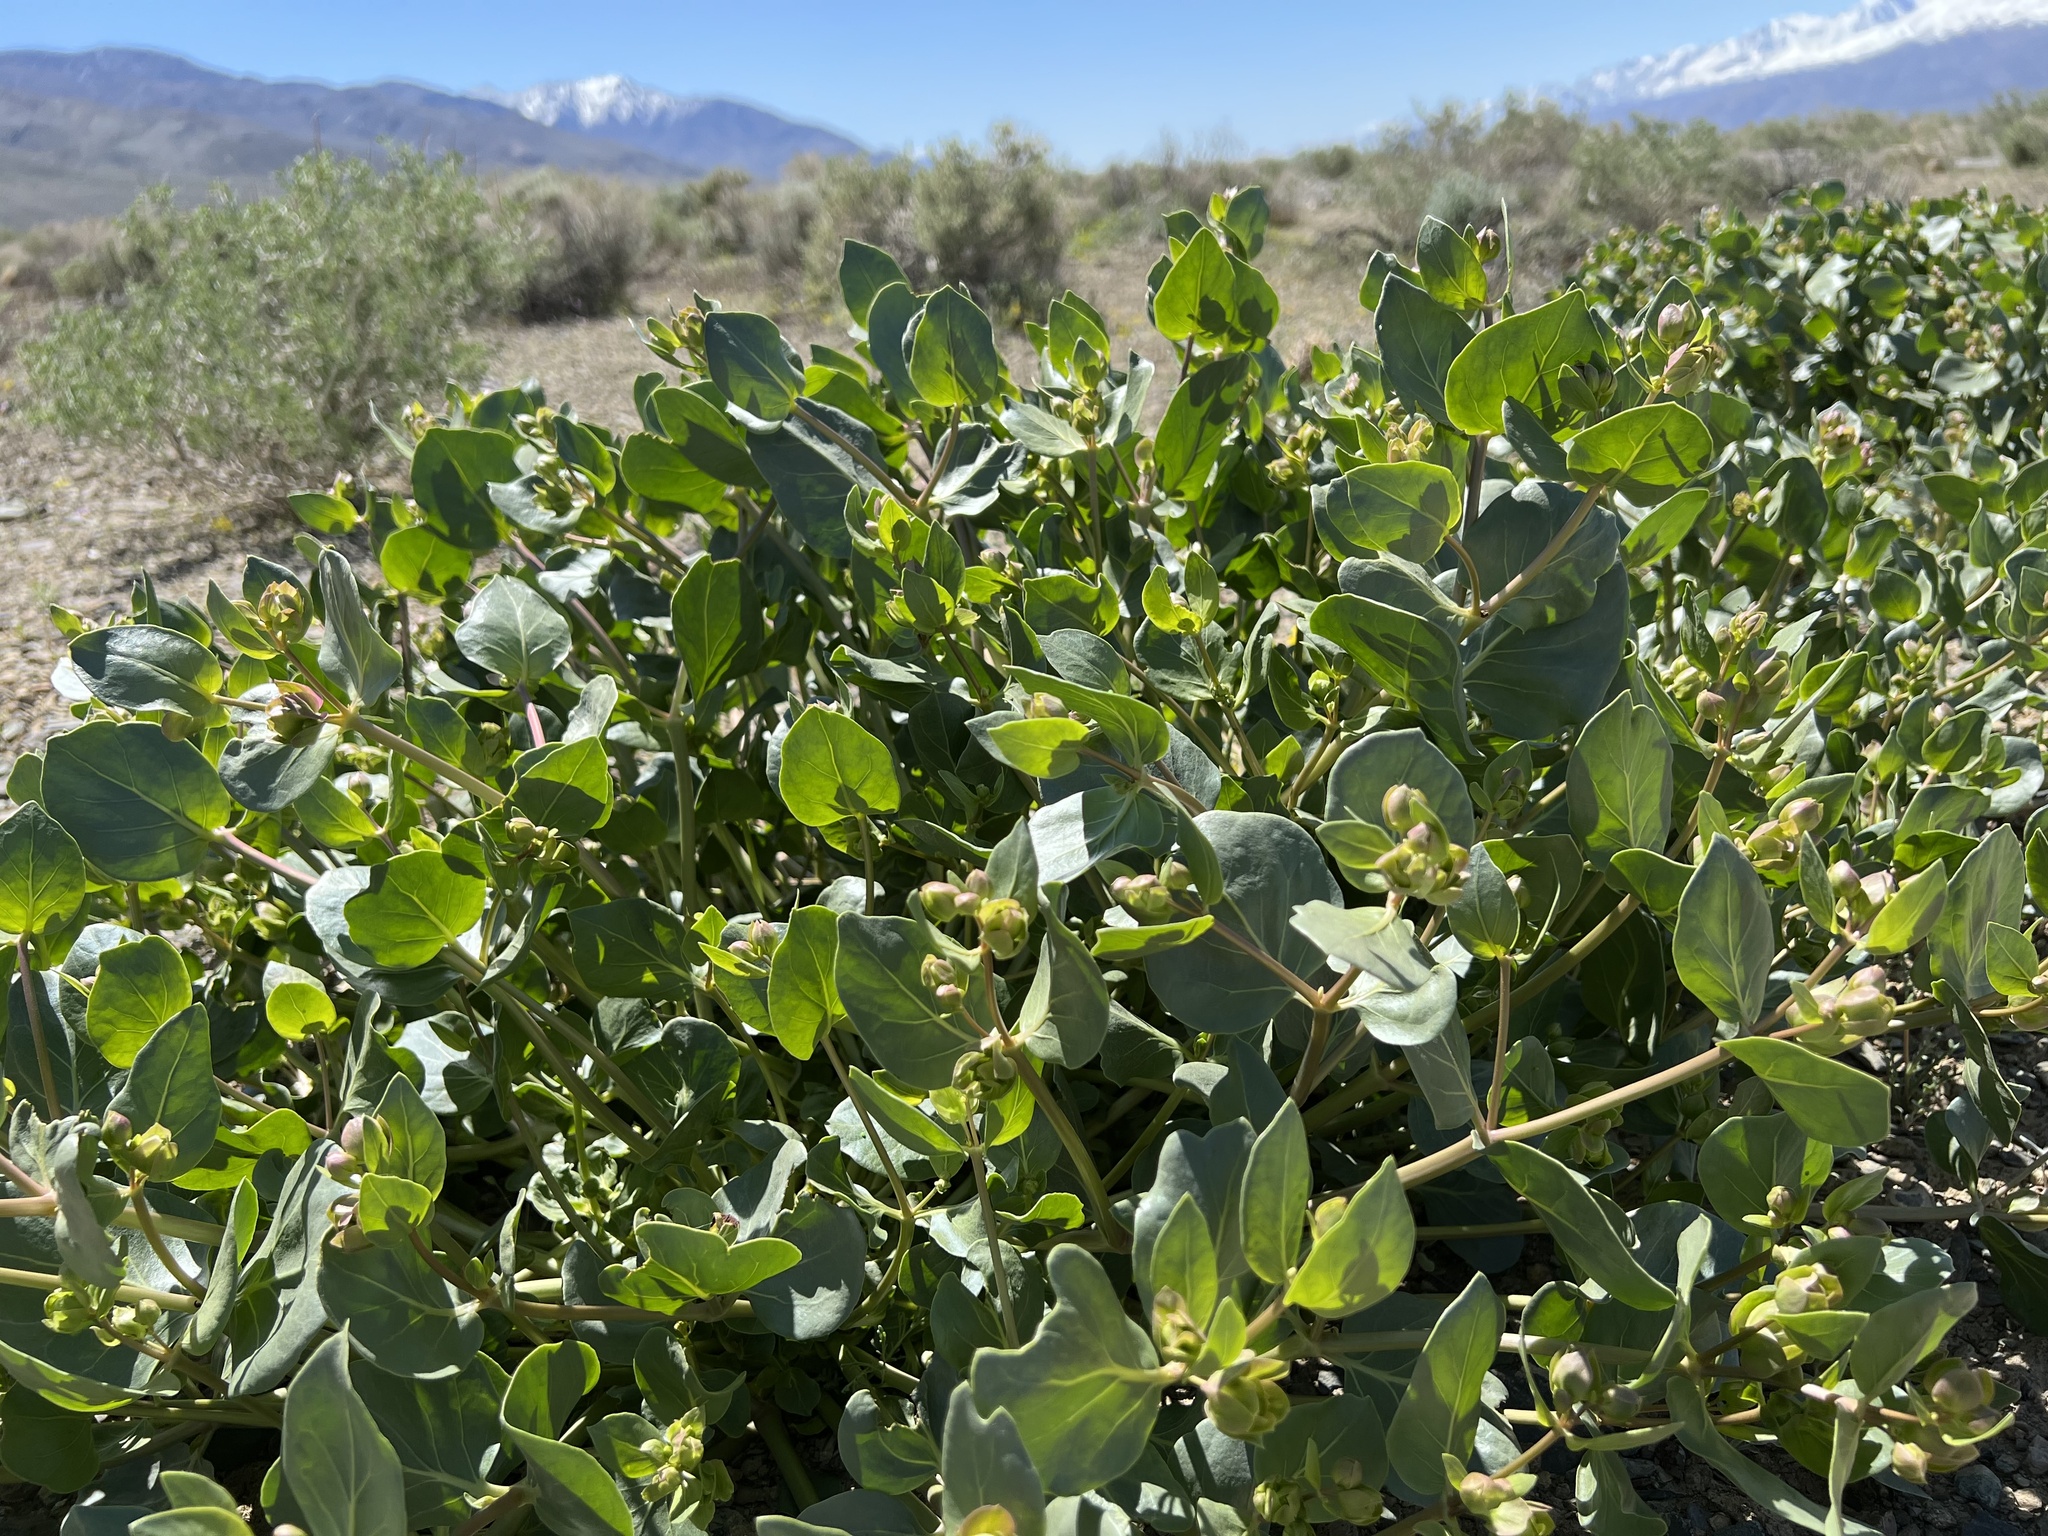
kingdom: Plantae
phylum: Tracheophyta
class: Magnoliopsida
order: Caryophyllales
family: Nyctaginaceae
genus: Mirabilis
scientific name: Mirabilis alipes
